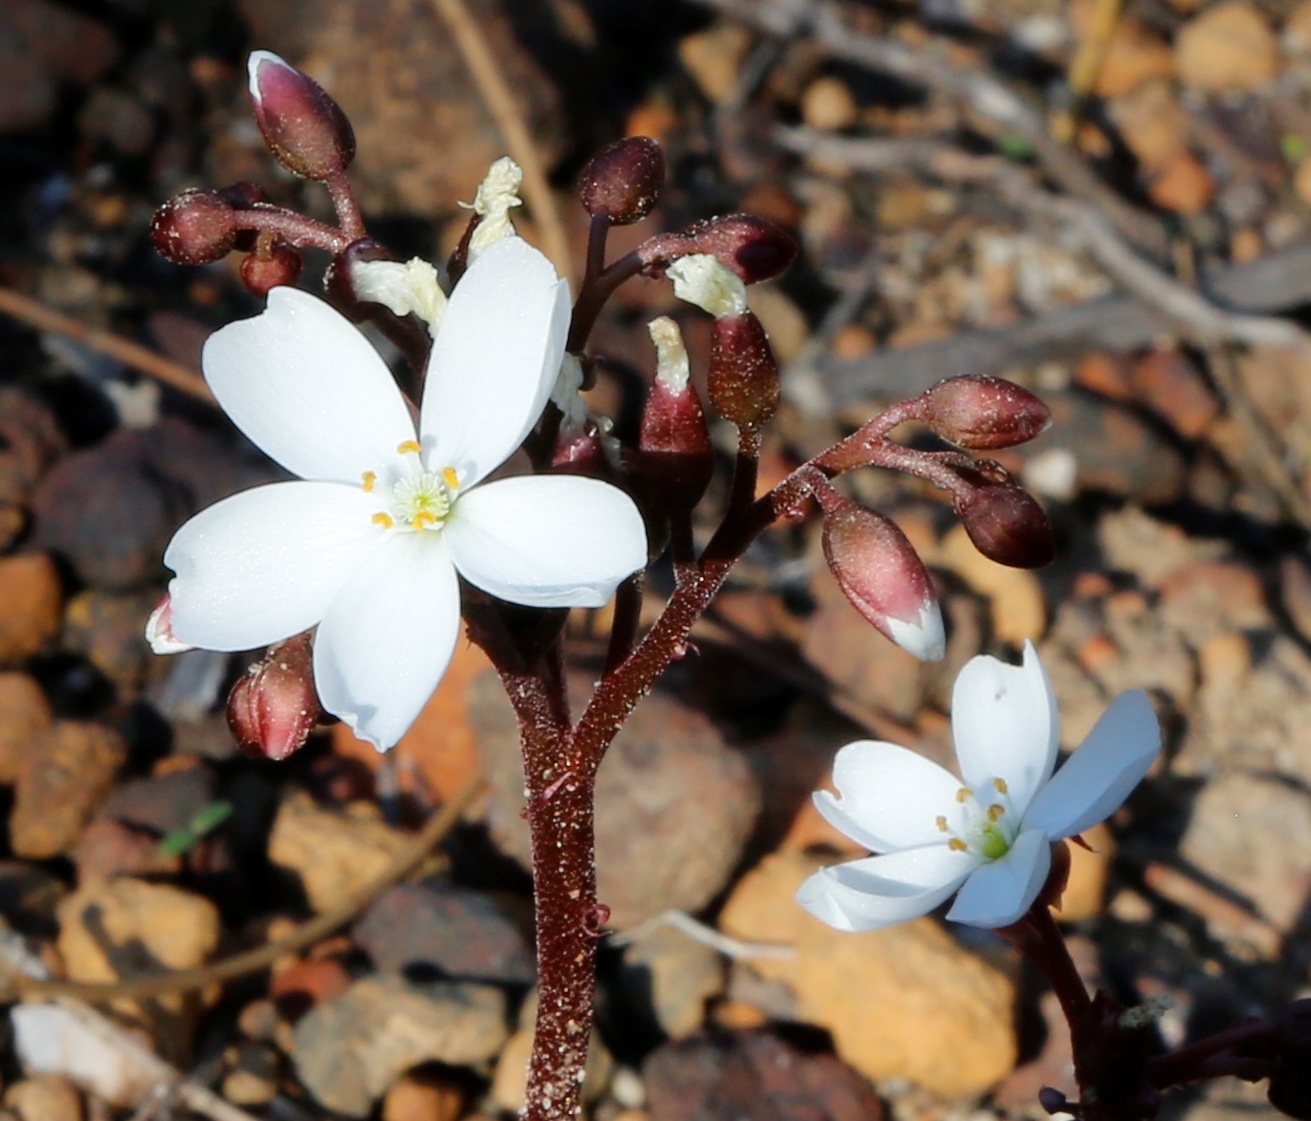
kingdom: Plantae
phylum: Tracheophyta
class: Magnoliopsida
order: Caryophyllales
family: Droseraceae
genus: Drosera
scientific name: Drosera erythrorhiza
